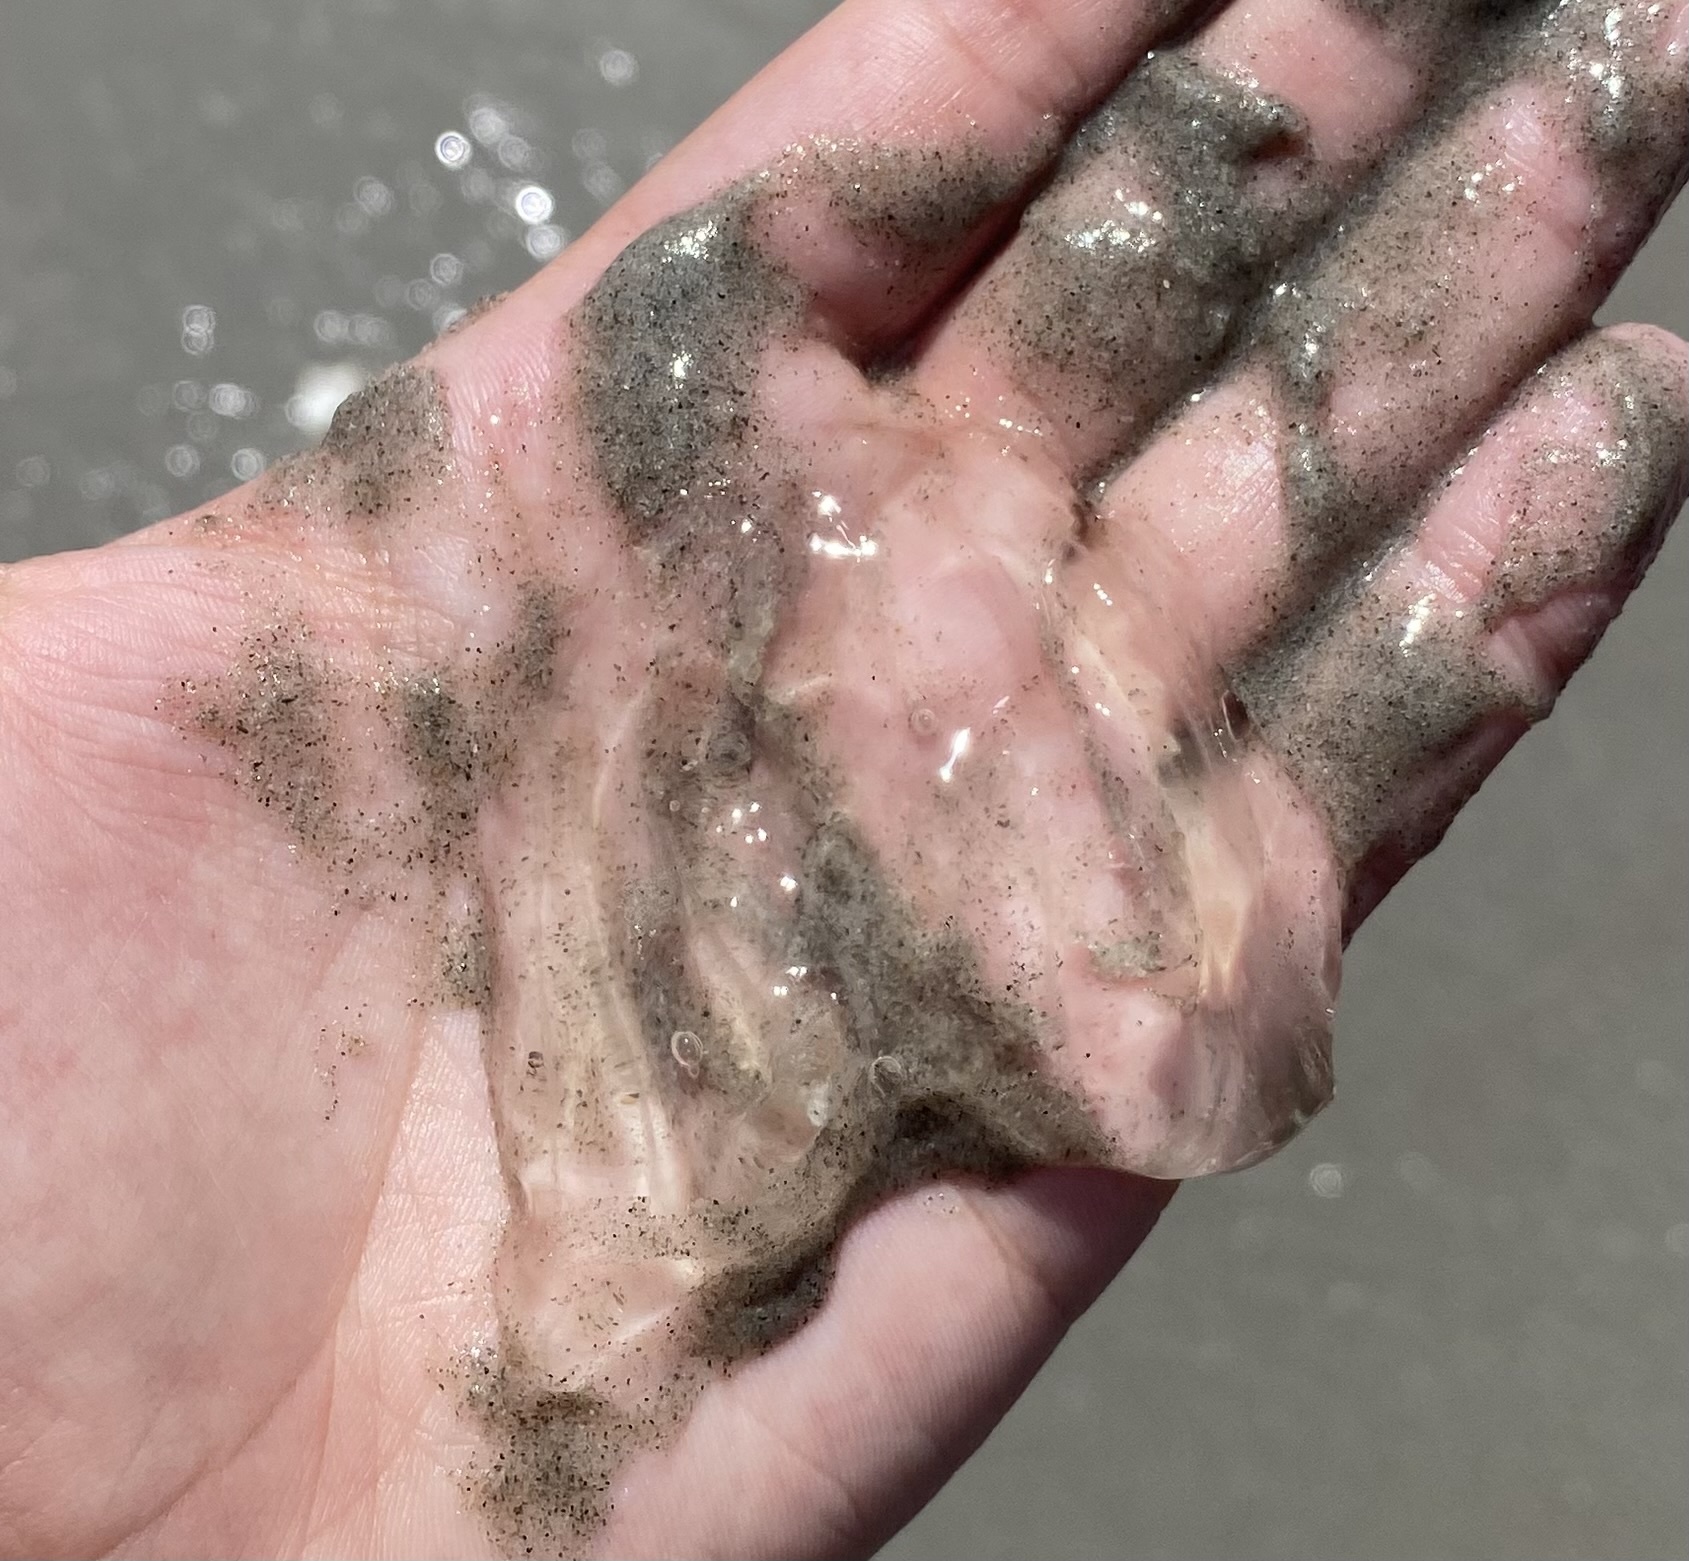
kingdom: Animalia
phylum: Ctenophora
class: Tentaculata
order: Lobata
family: Bolinopsidae
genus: Mnemiopsis
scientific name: Mnemiopsis leidyi
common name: American comb jelly
